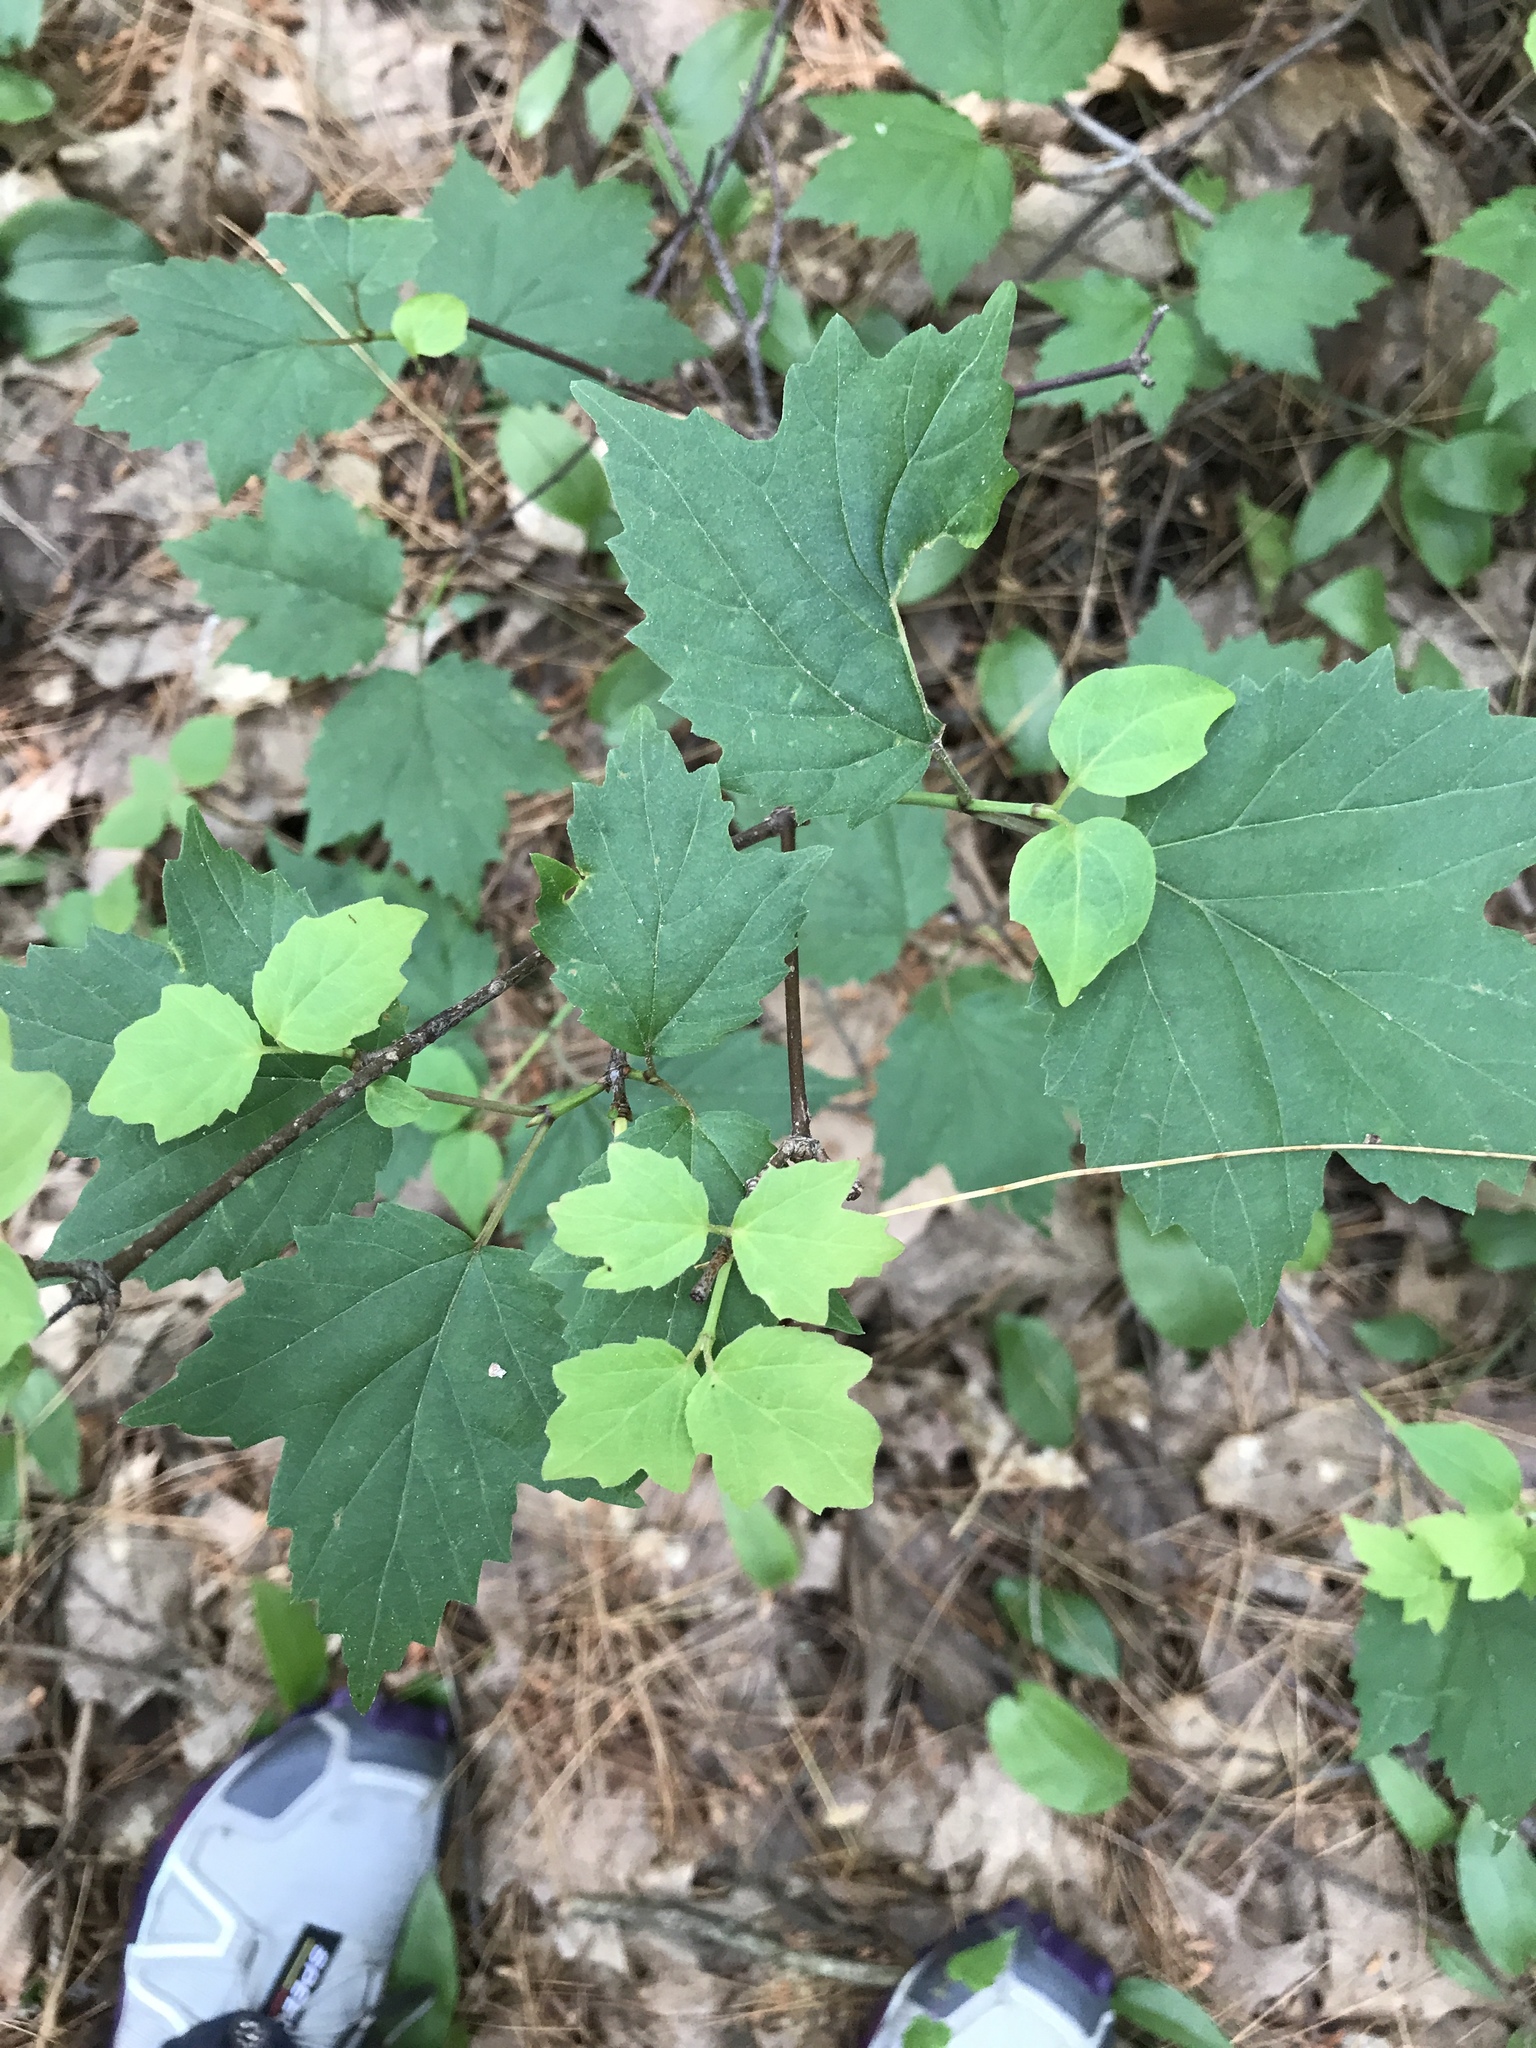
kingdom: Plantae
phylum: Tracheophyta
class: Magnoliopsida
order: Dipsacales
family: Viburnaceae
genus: Viburnum
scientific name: Viburnum acerifolium
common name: Dockmackie
